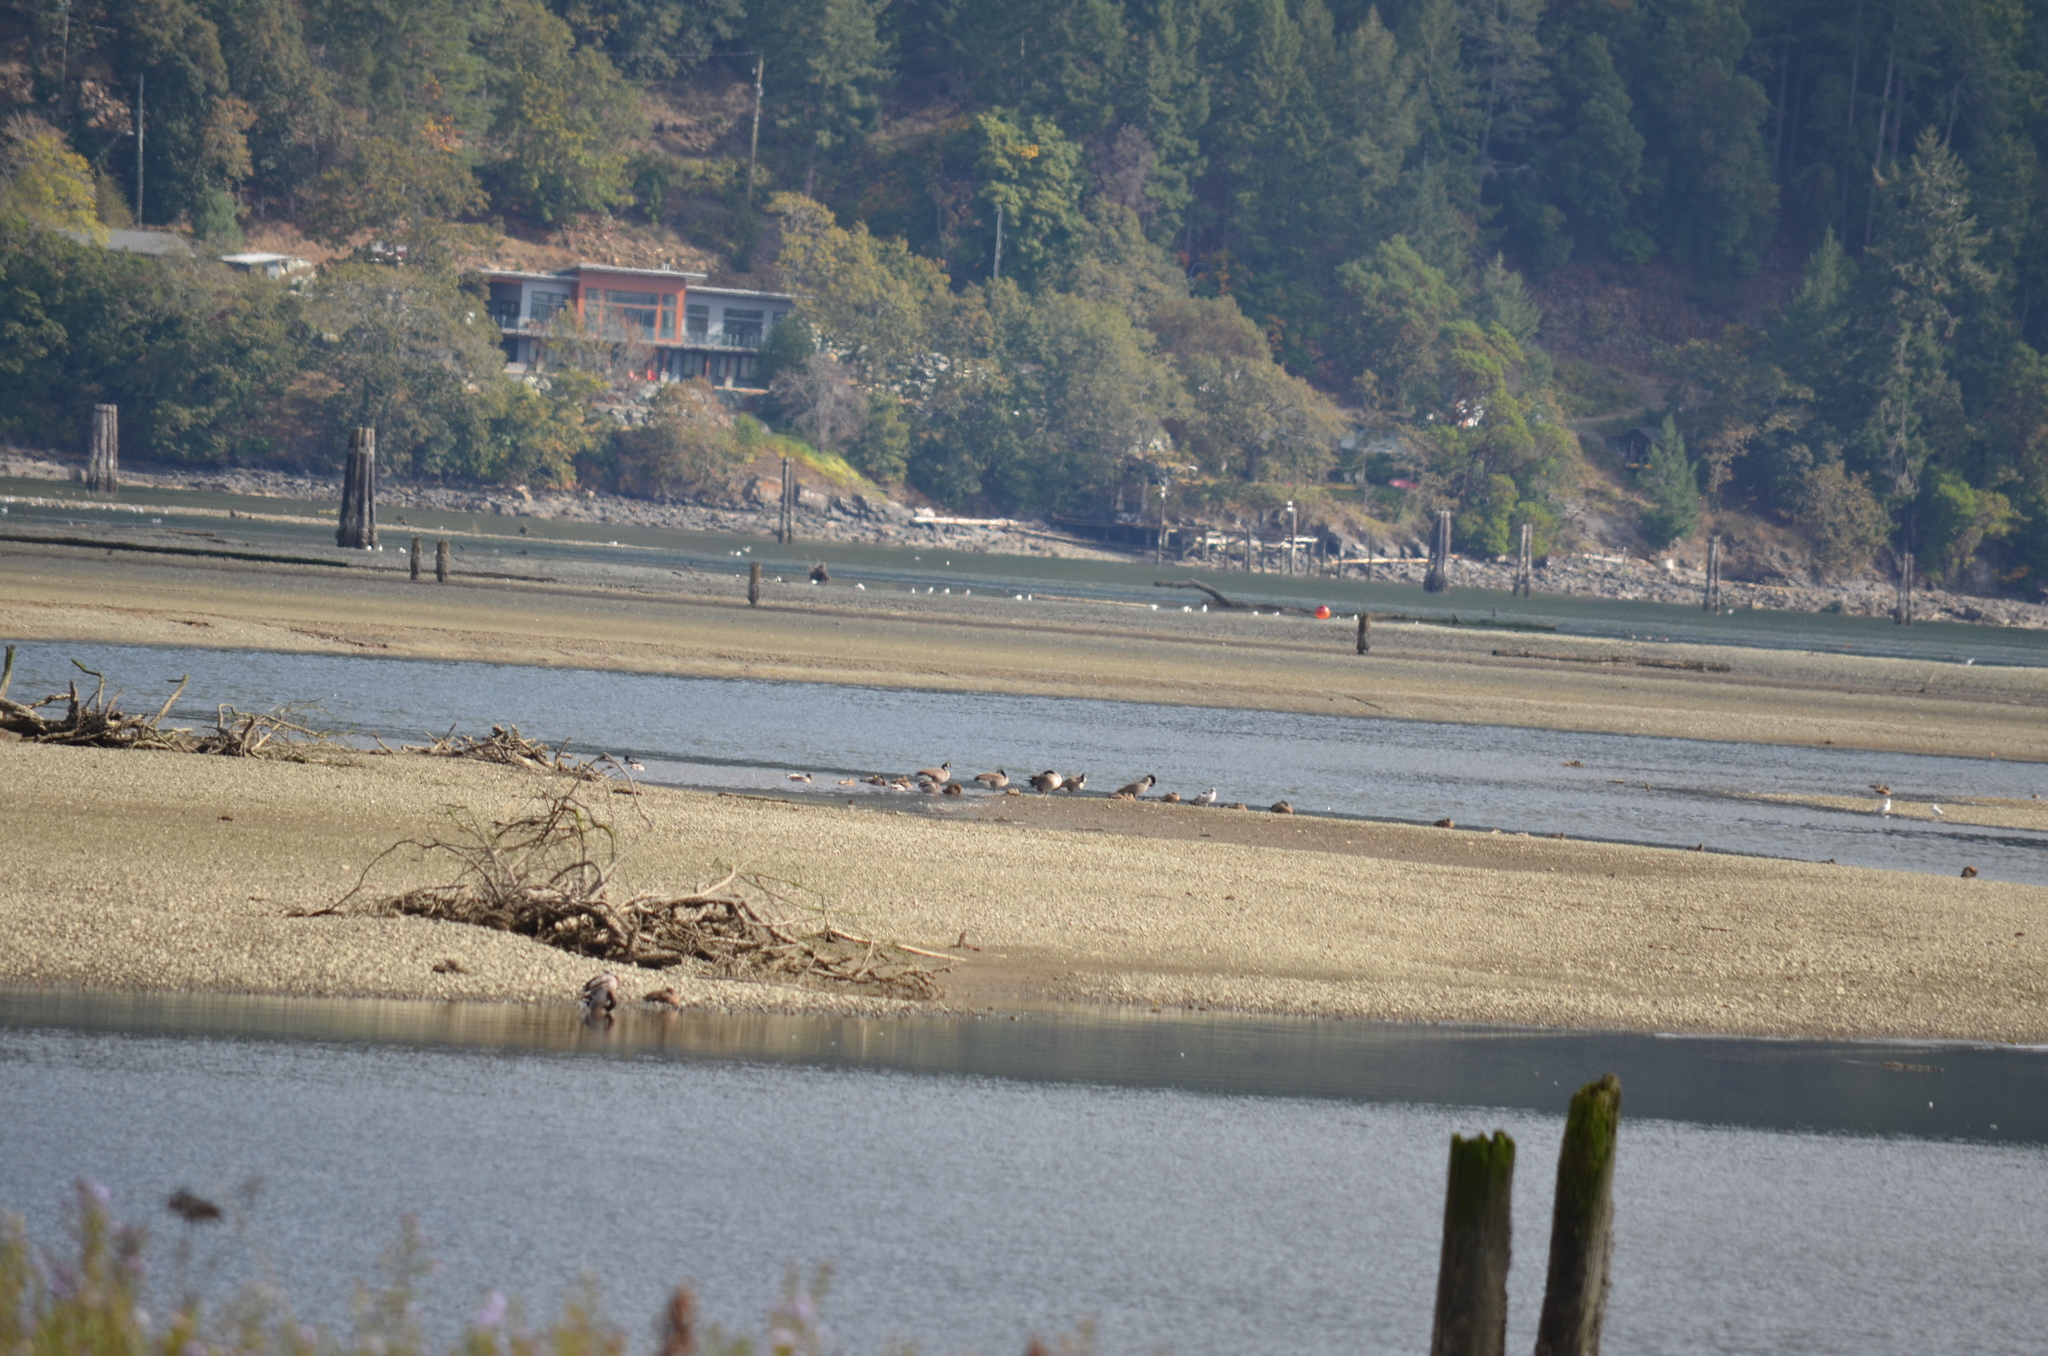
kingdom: Animalia
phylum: Chordata
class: Aves
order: Anseriformes
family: Anatidae
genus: Branta
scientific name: Branta canadensis
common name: Canada goose
